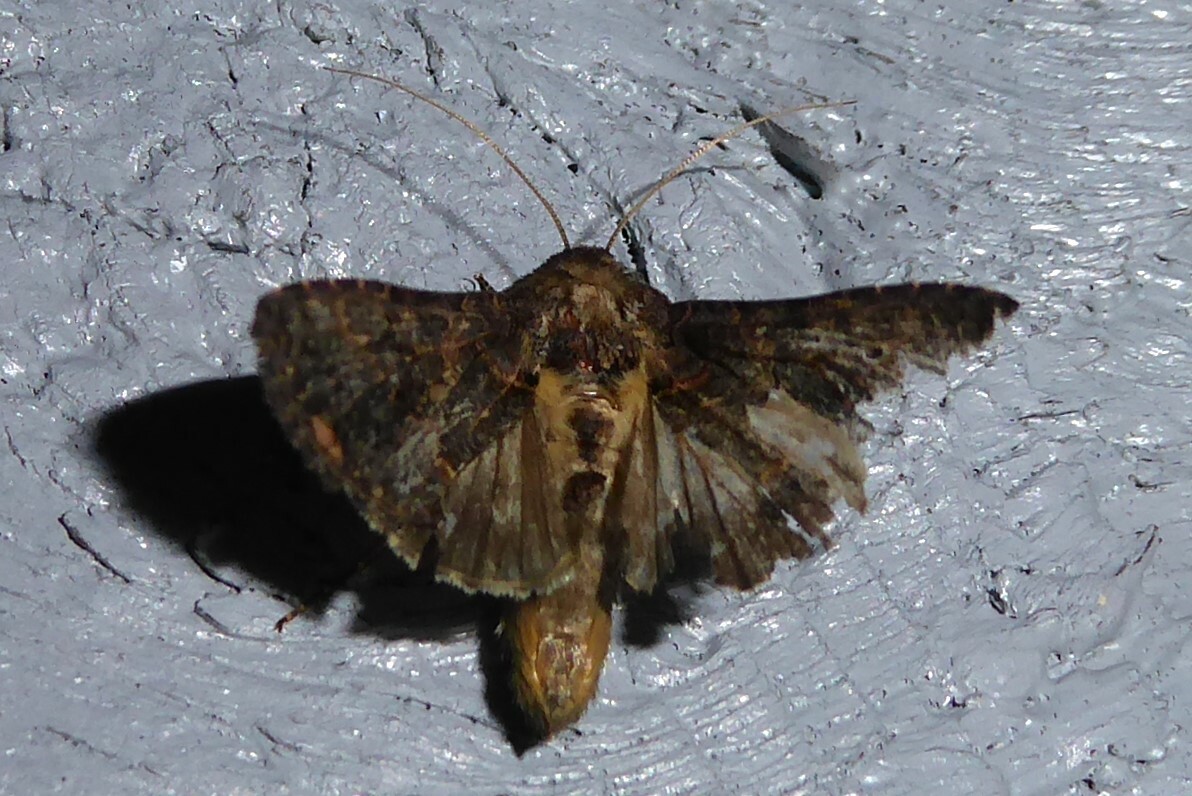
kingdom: Animalia
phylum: Arthropoda
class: Insecta
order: Lepidoptera
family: Noctuidae
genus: Ctenoplusia
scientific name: Ctenoplusia limbirena
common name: Scar bank gem
